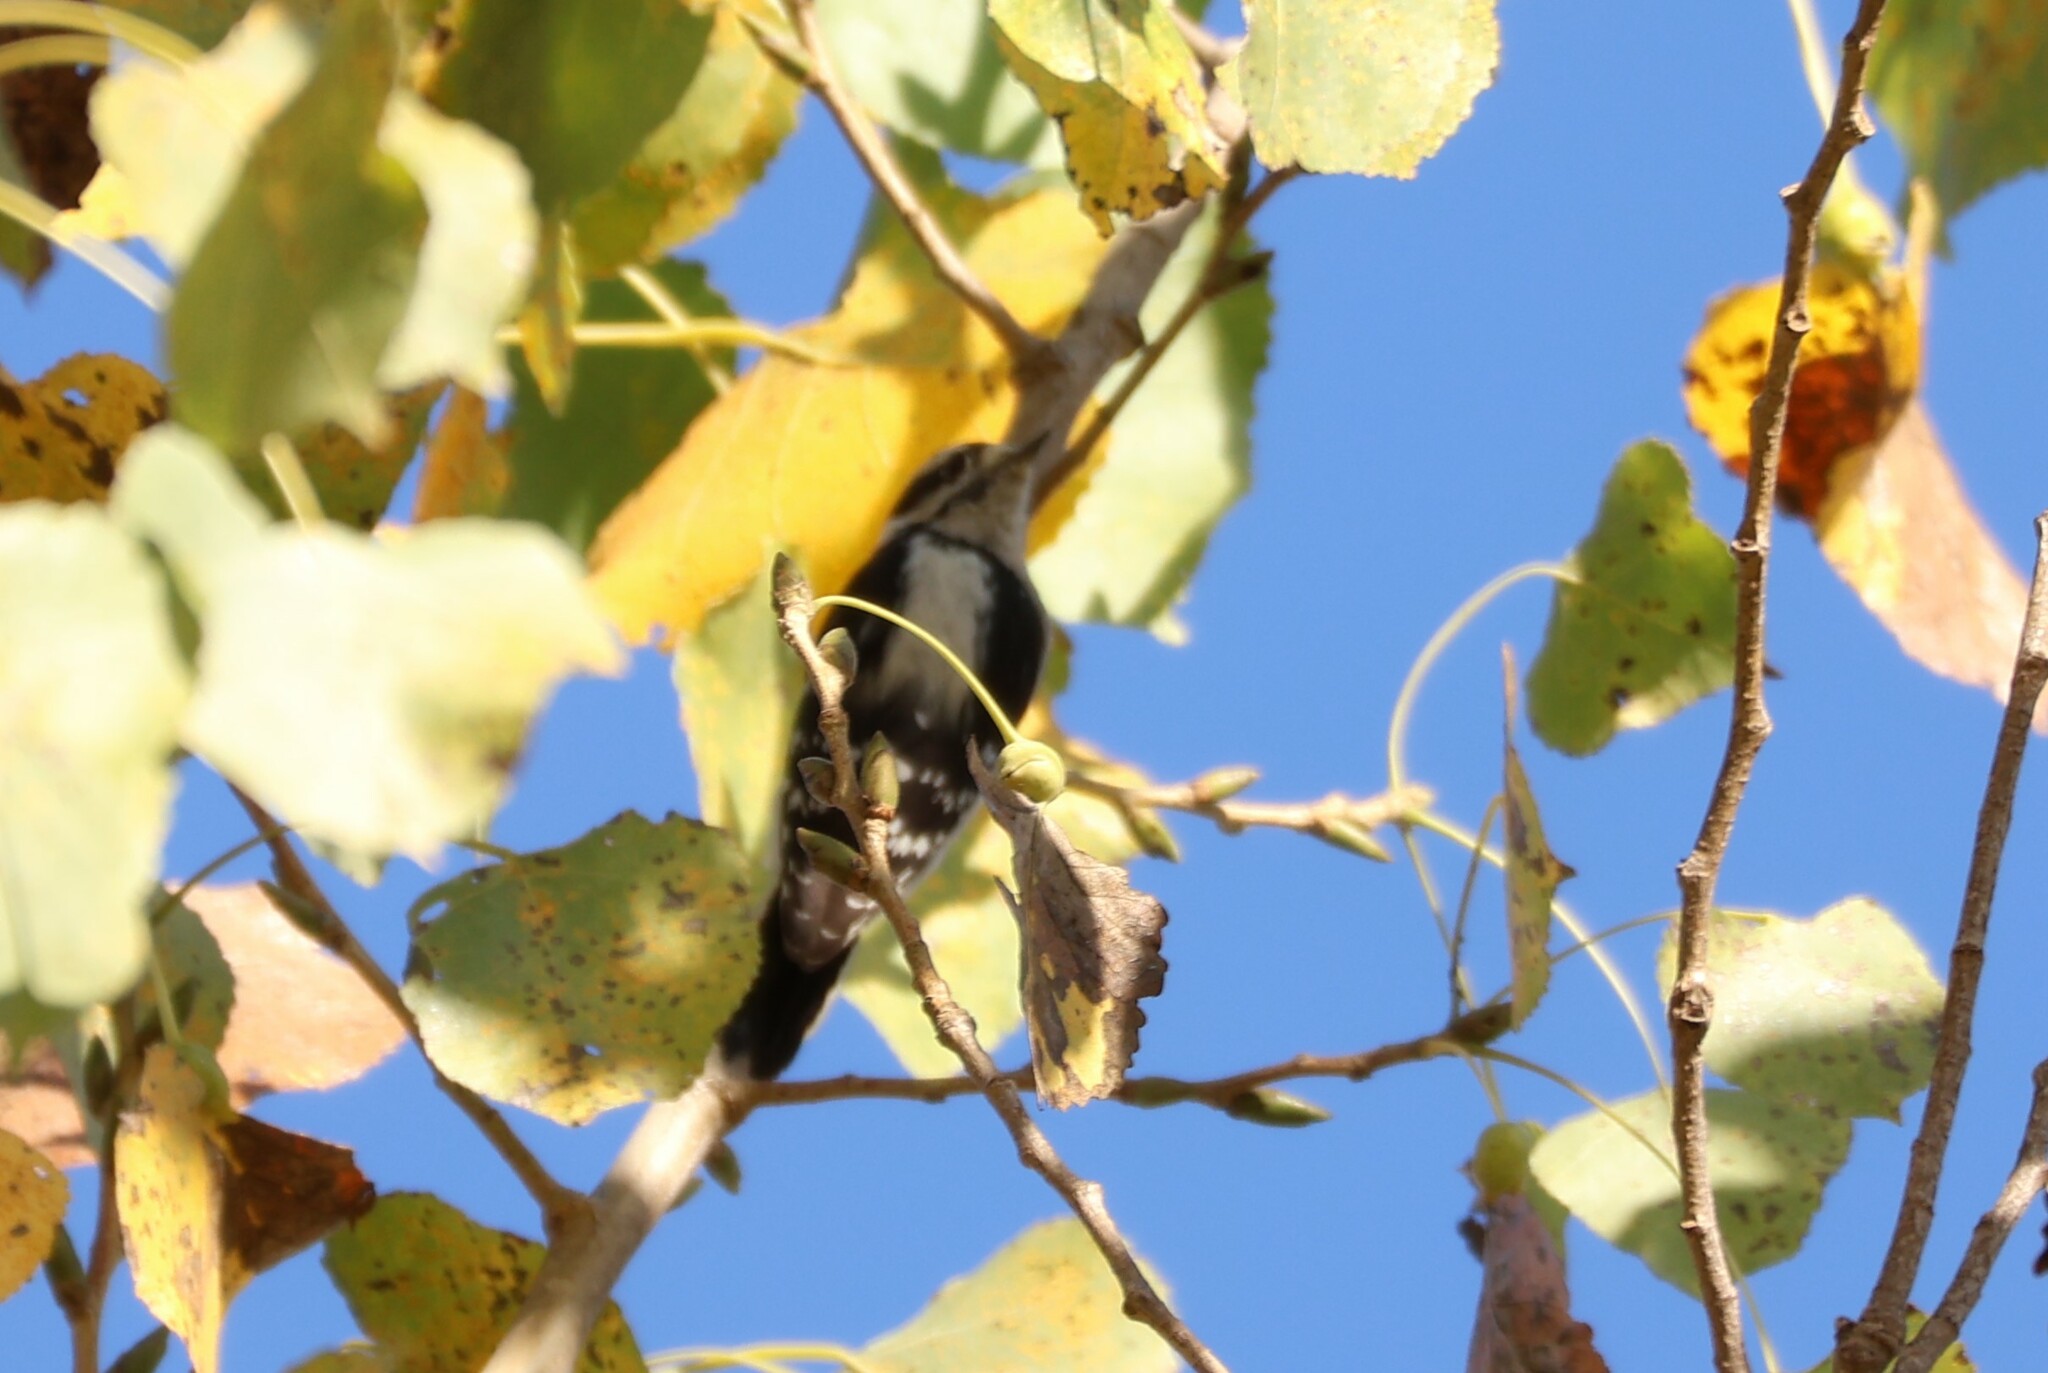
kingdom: Animalia
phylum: Chordata
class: Aves
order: Piciformes
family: Picidae
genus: Dryobates
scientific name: Dryobates pubescens
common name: Downy woodpecker
